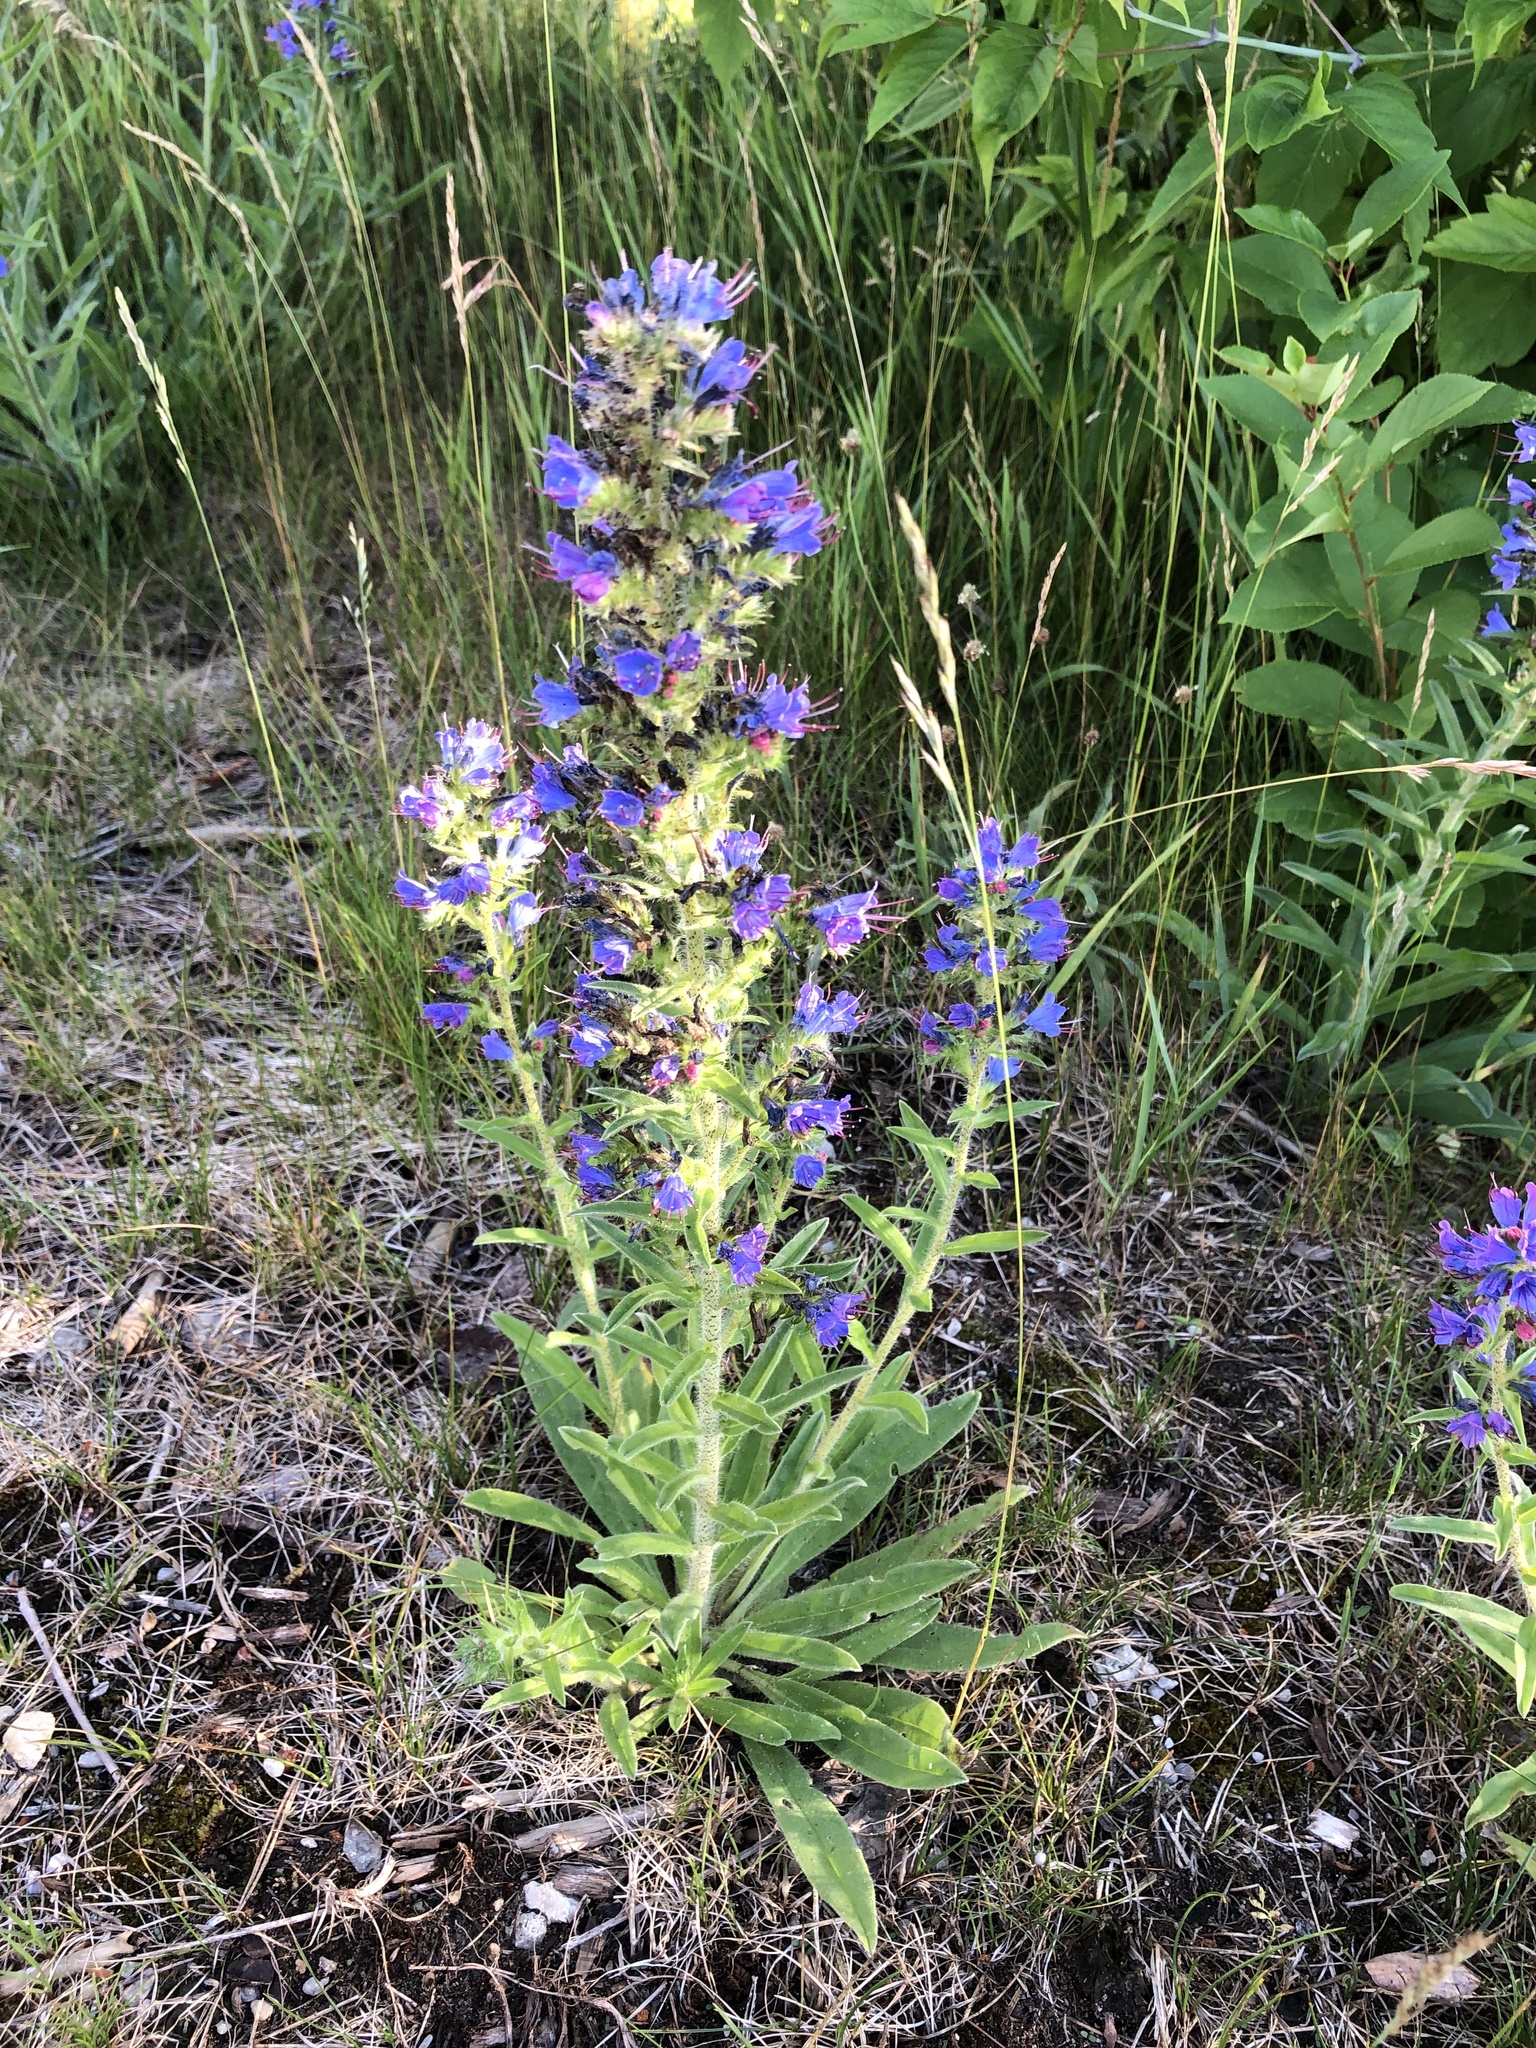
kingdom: Plantae
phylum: Tracheophyta
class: Magnoliopsida
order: Boraginales
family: Boraginaceae
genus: Echium
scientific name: Echium vulgare
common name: Common viper's bugloss
